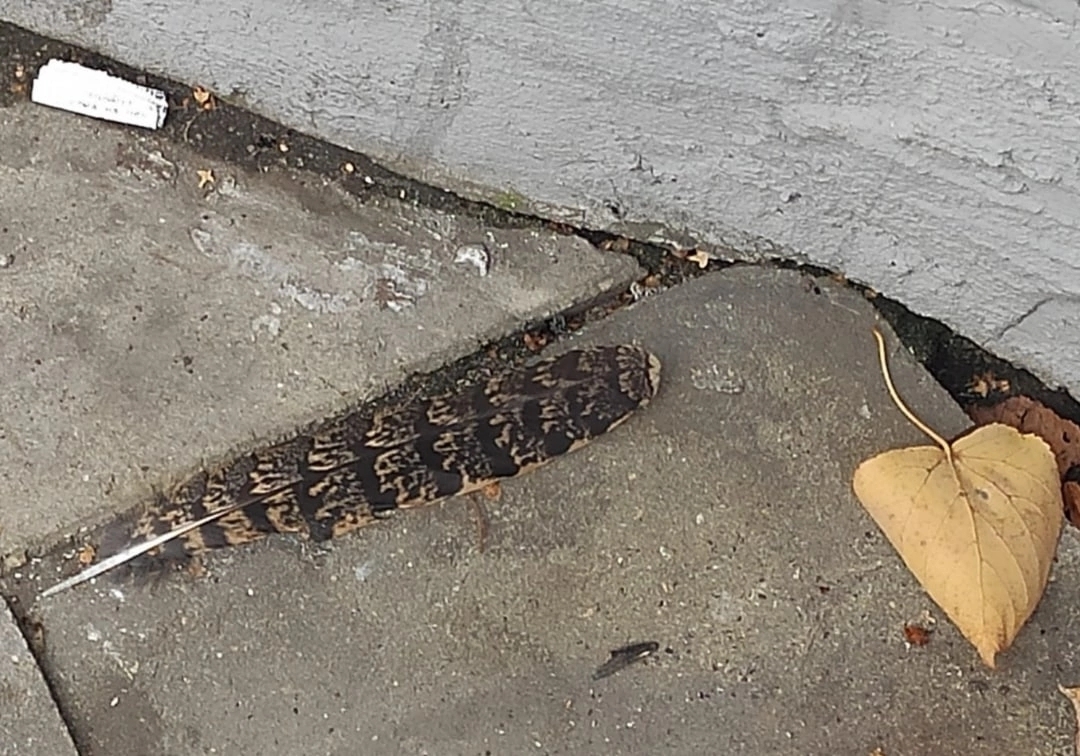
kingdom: Animalia
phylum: Chordata
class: Aves
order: Caprimulgiformes
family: Caprimulgidae
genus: Caprimulgus
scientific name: Caprimulgus europaeus
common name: European nightjar
